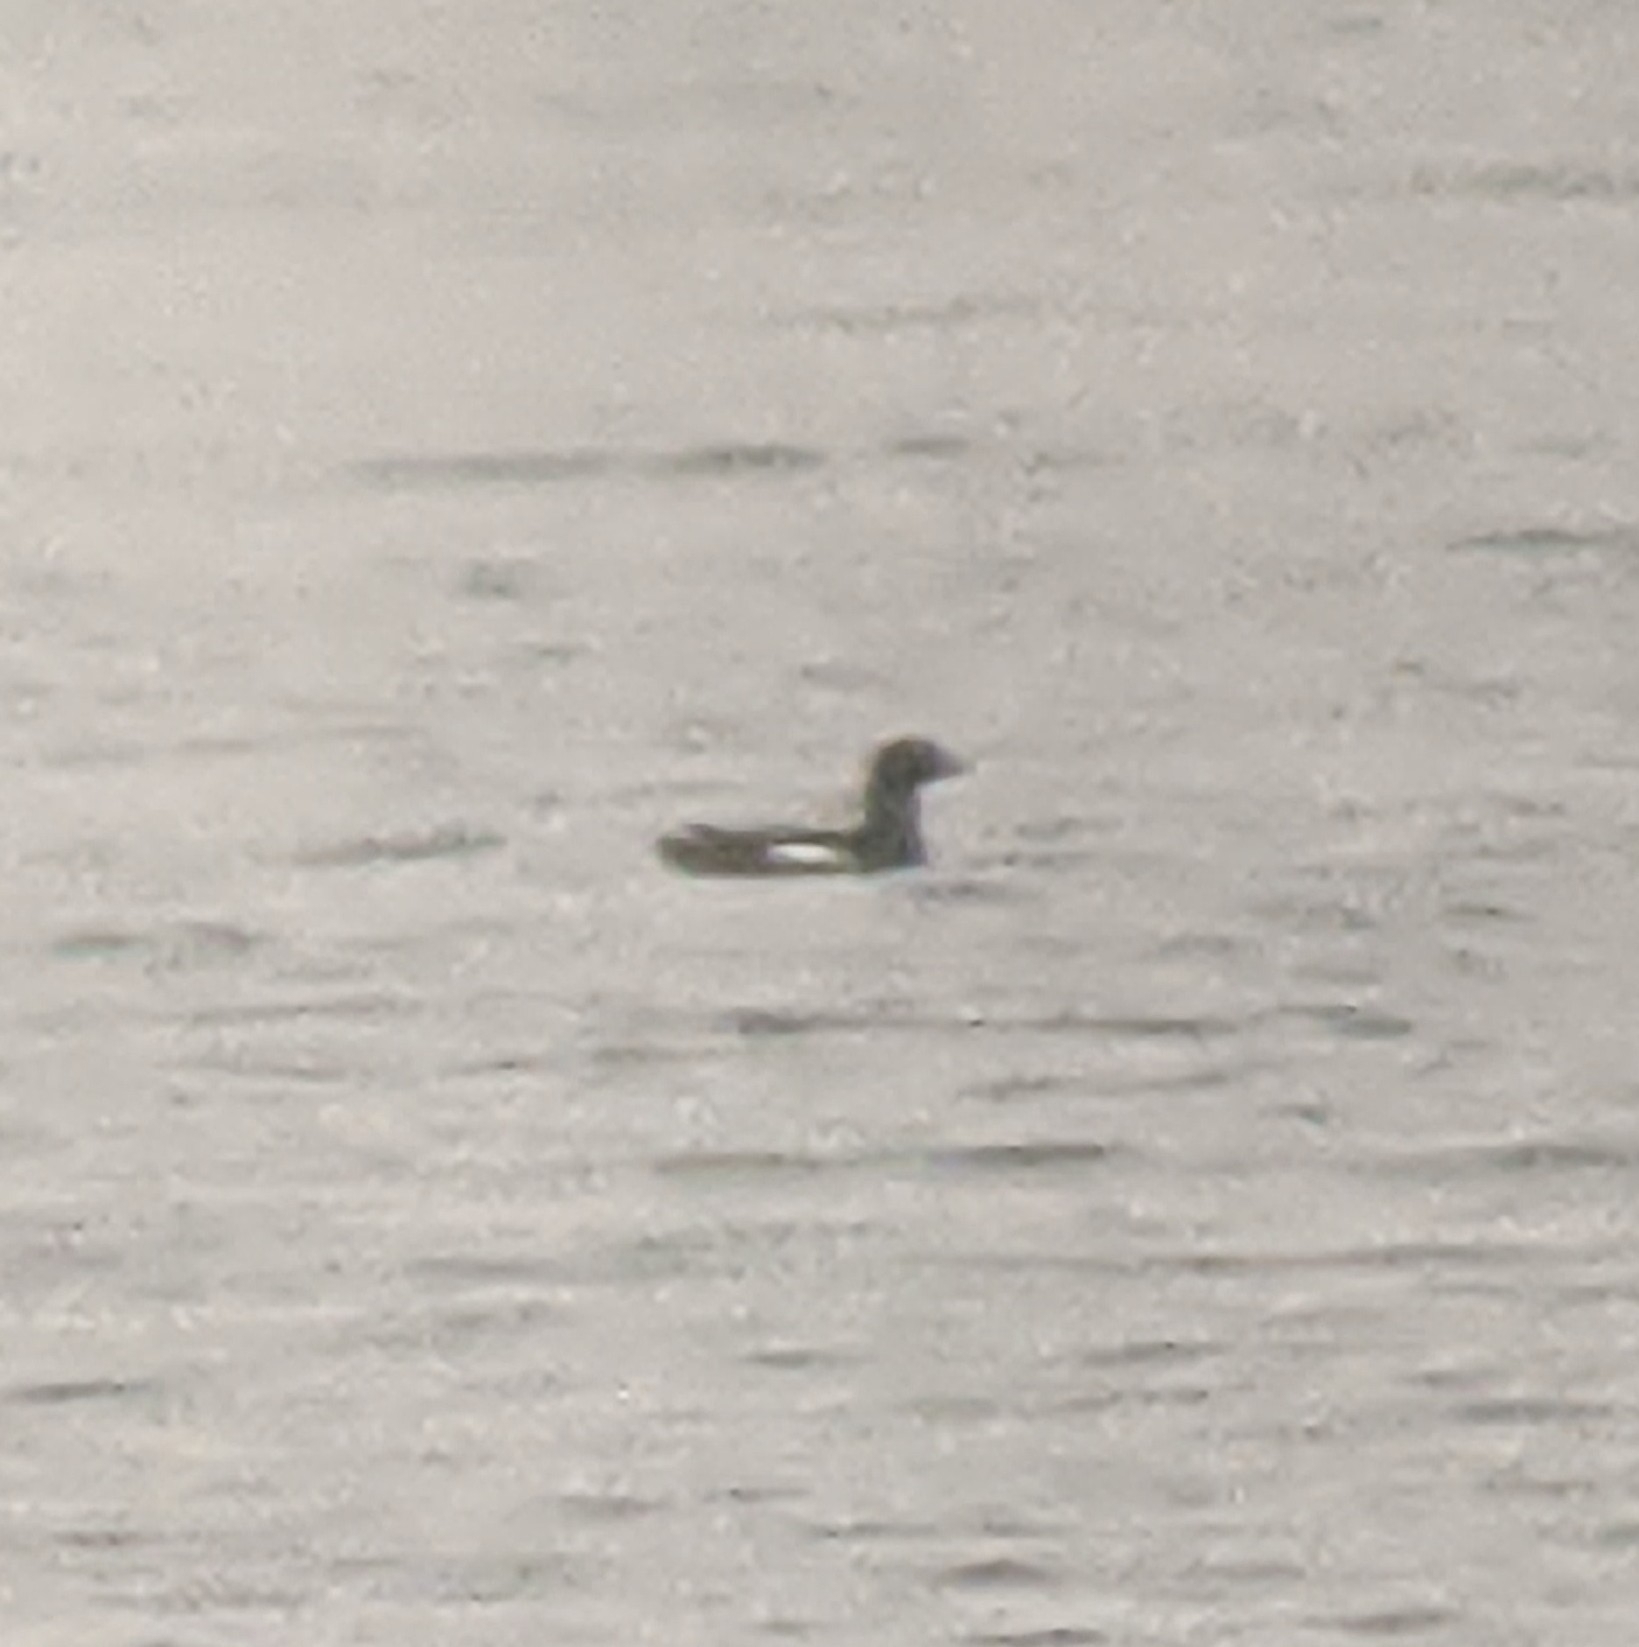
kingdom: Animalia
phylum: Chordata
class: Aves
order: Charadriiformes
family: Alcidae
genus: Cepphus
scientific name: Cepphus columba
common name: Pigeon guillemot
